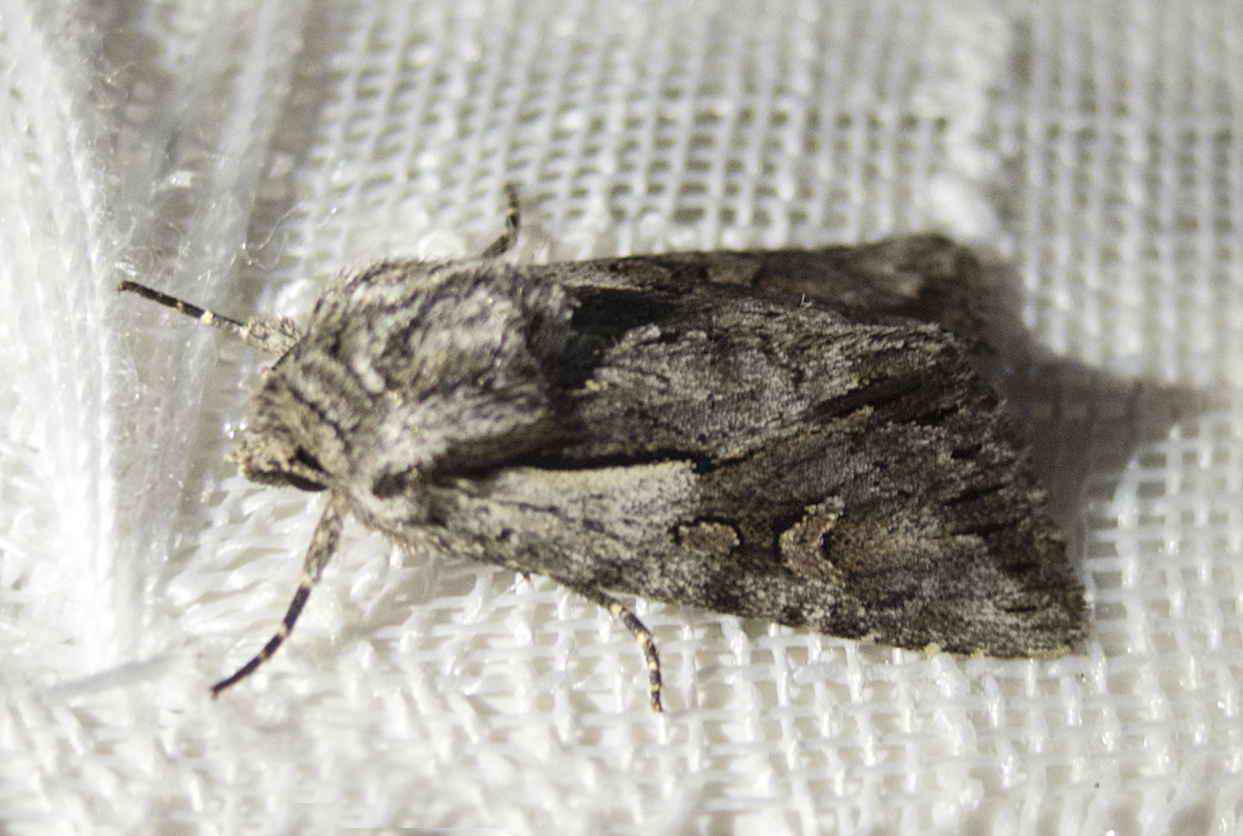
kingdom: Animalia
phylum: Arthropoda
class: Insecta
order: Lepidoptera
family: Noctuidae
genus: Chloantha
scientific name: Chloantha hyperici
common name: Pale-shouldered cloud
